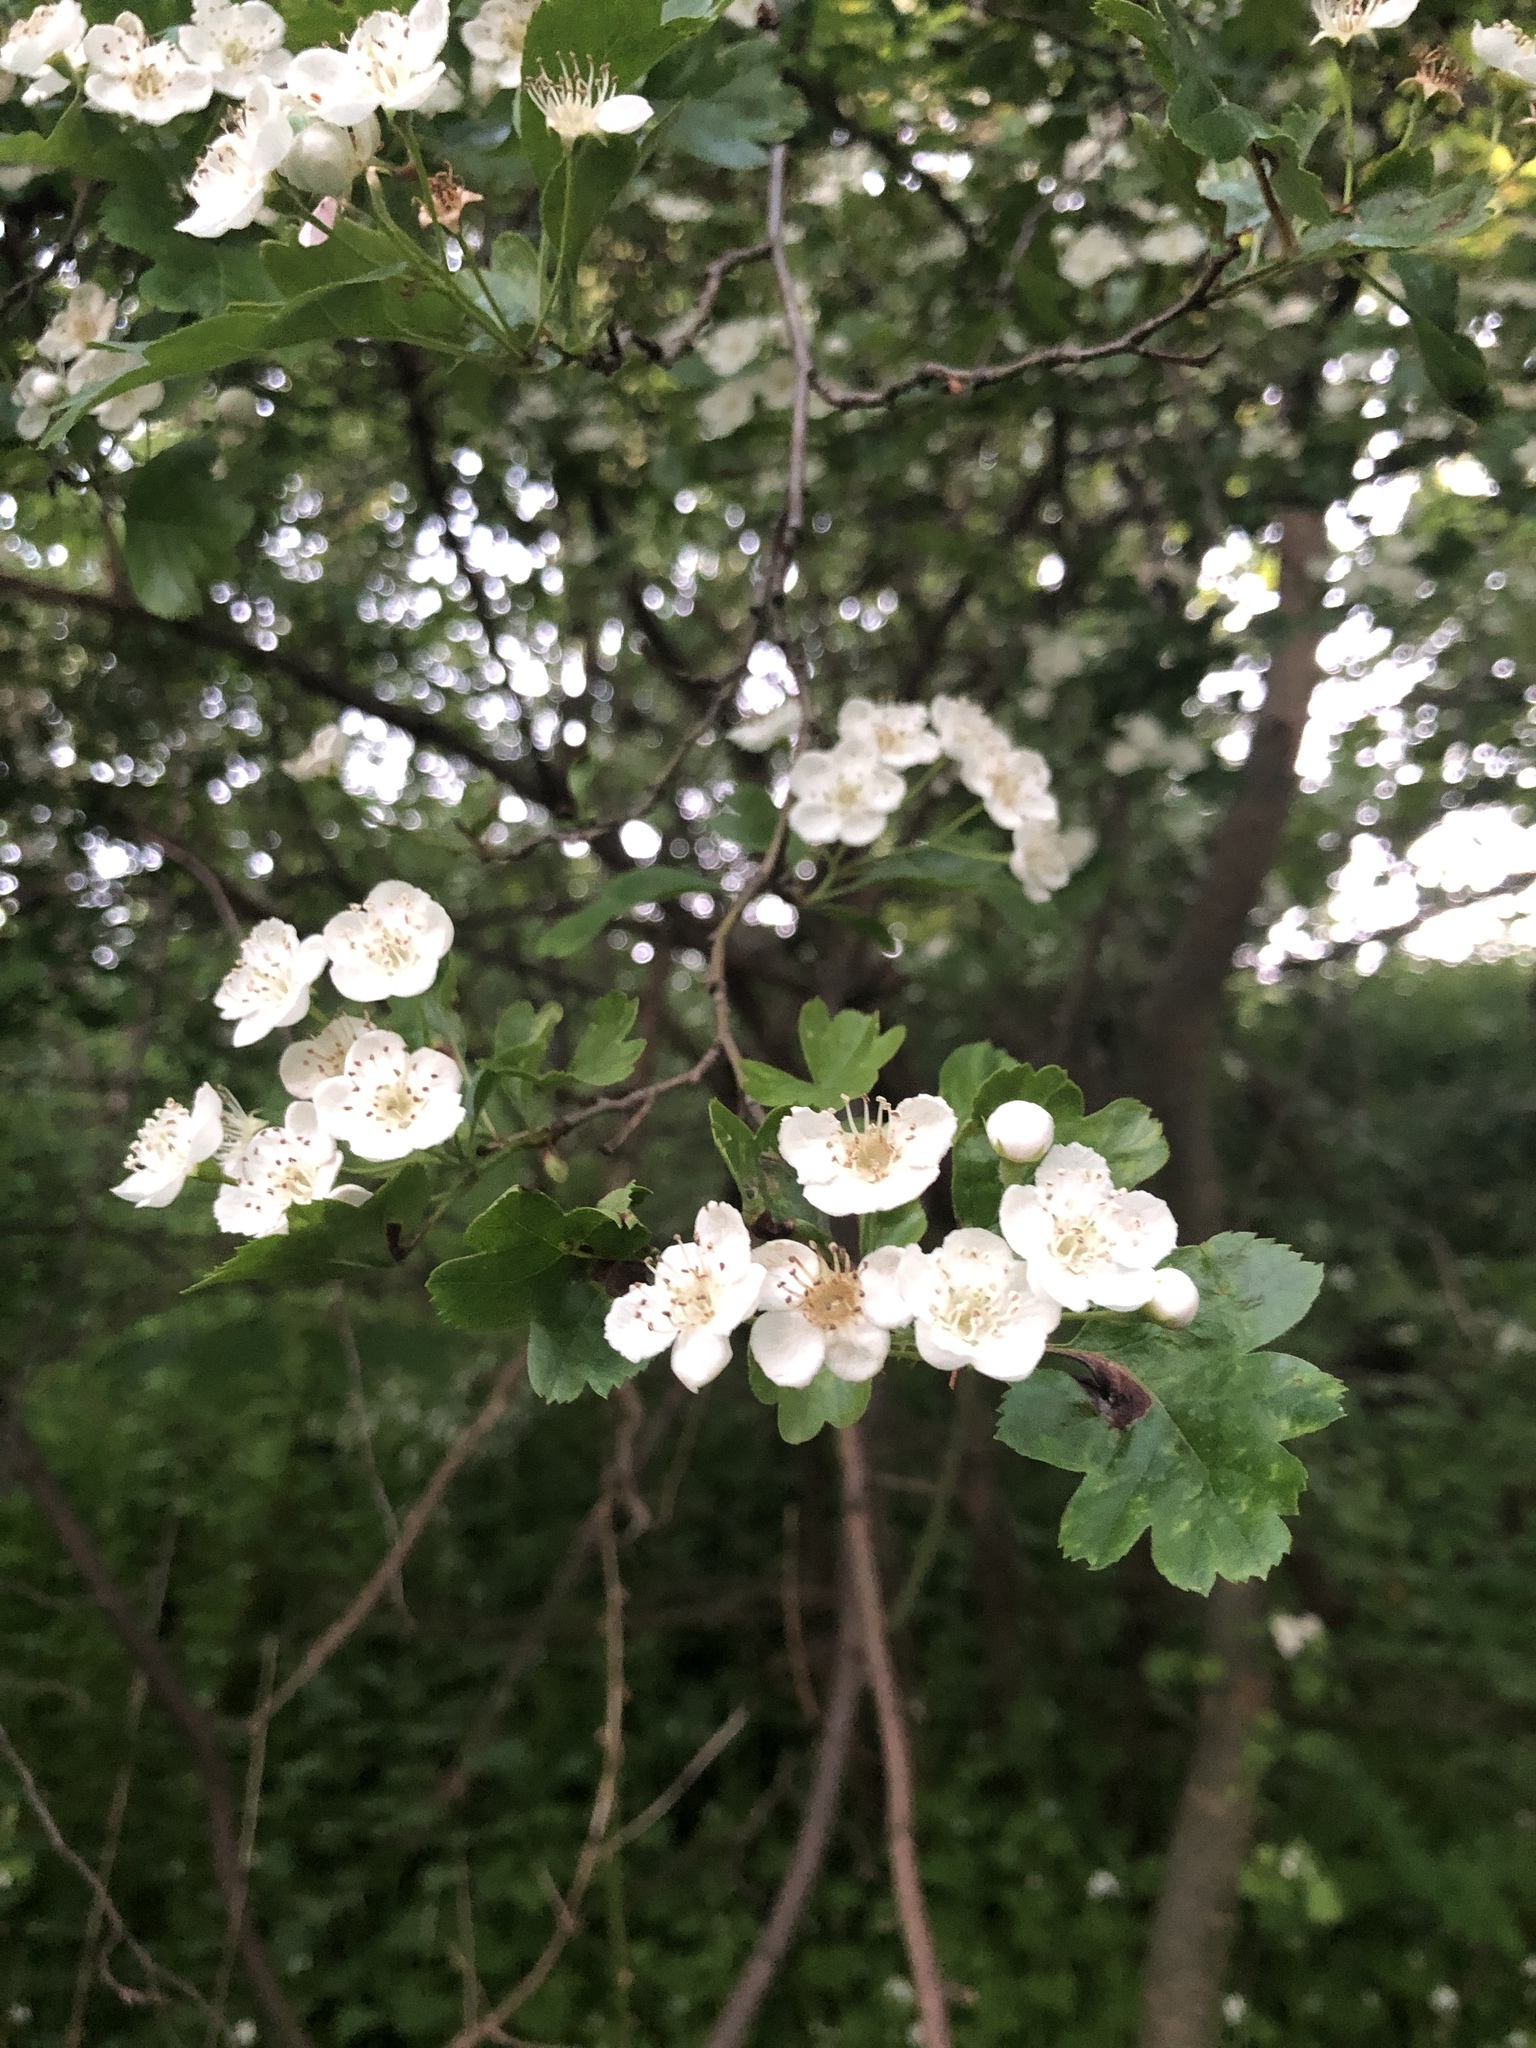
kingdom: Plantae
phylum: Tracheophyta
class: Magnoliopsida
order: Rosales
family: Rosaceae
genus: Crataegus
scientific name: Crataegus monogyna
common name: Hawthorn
